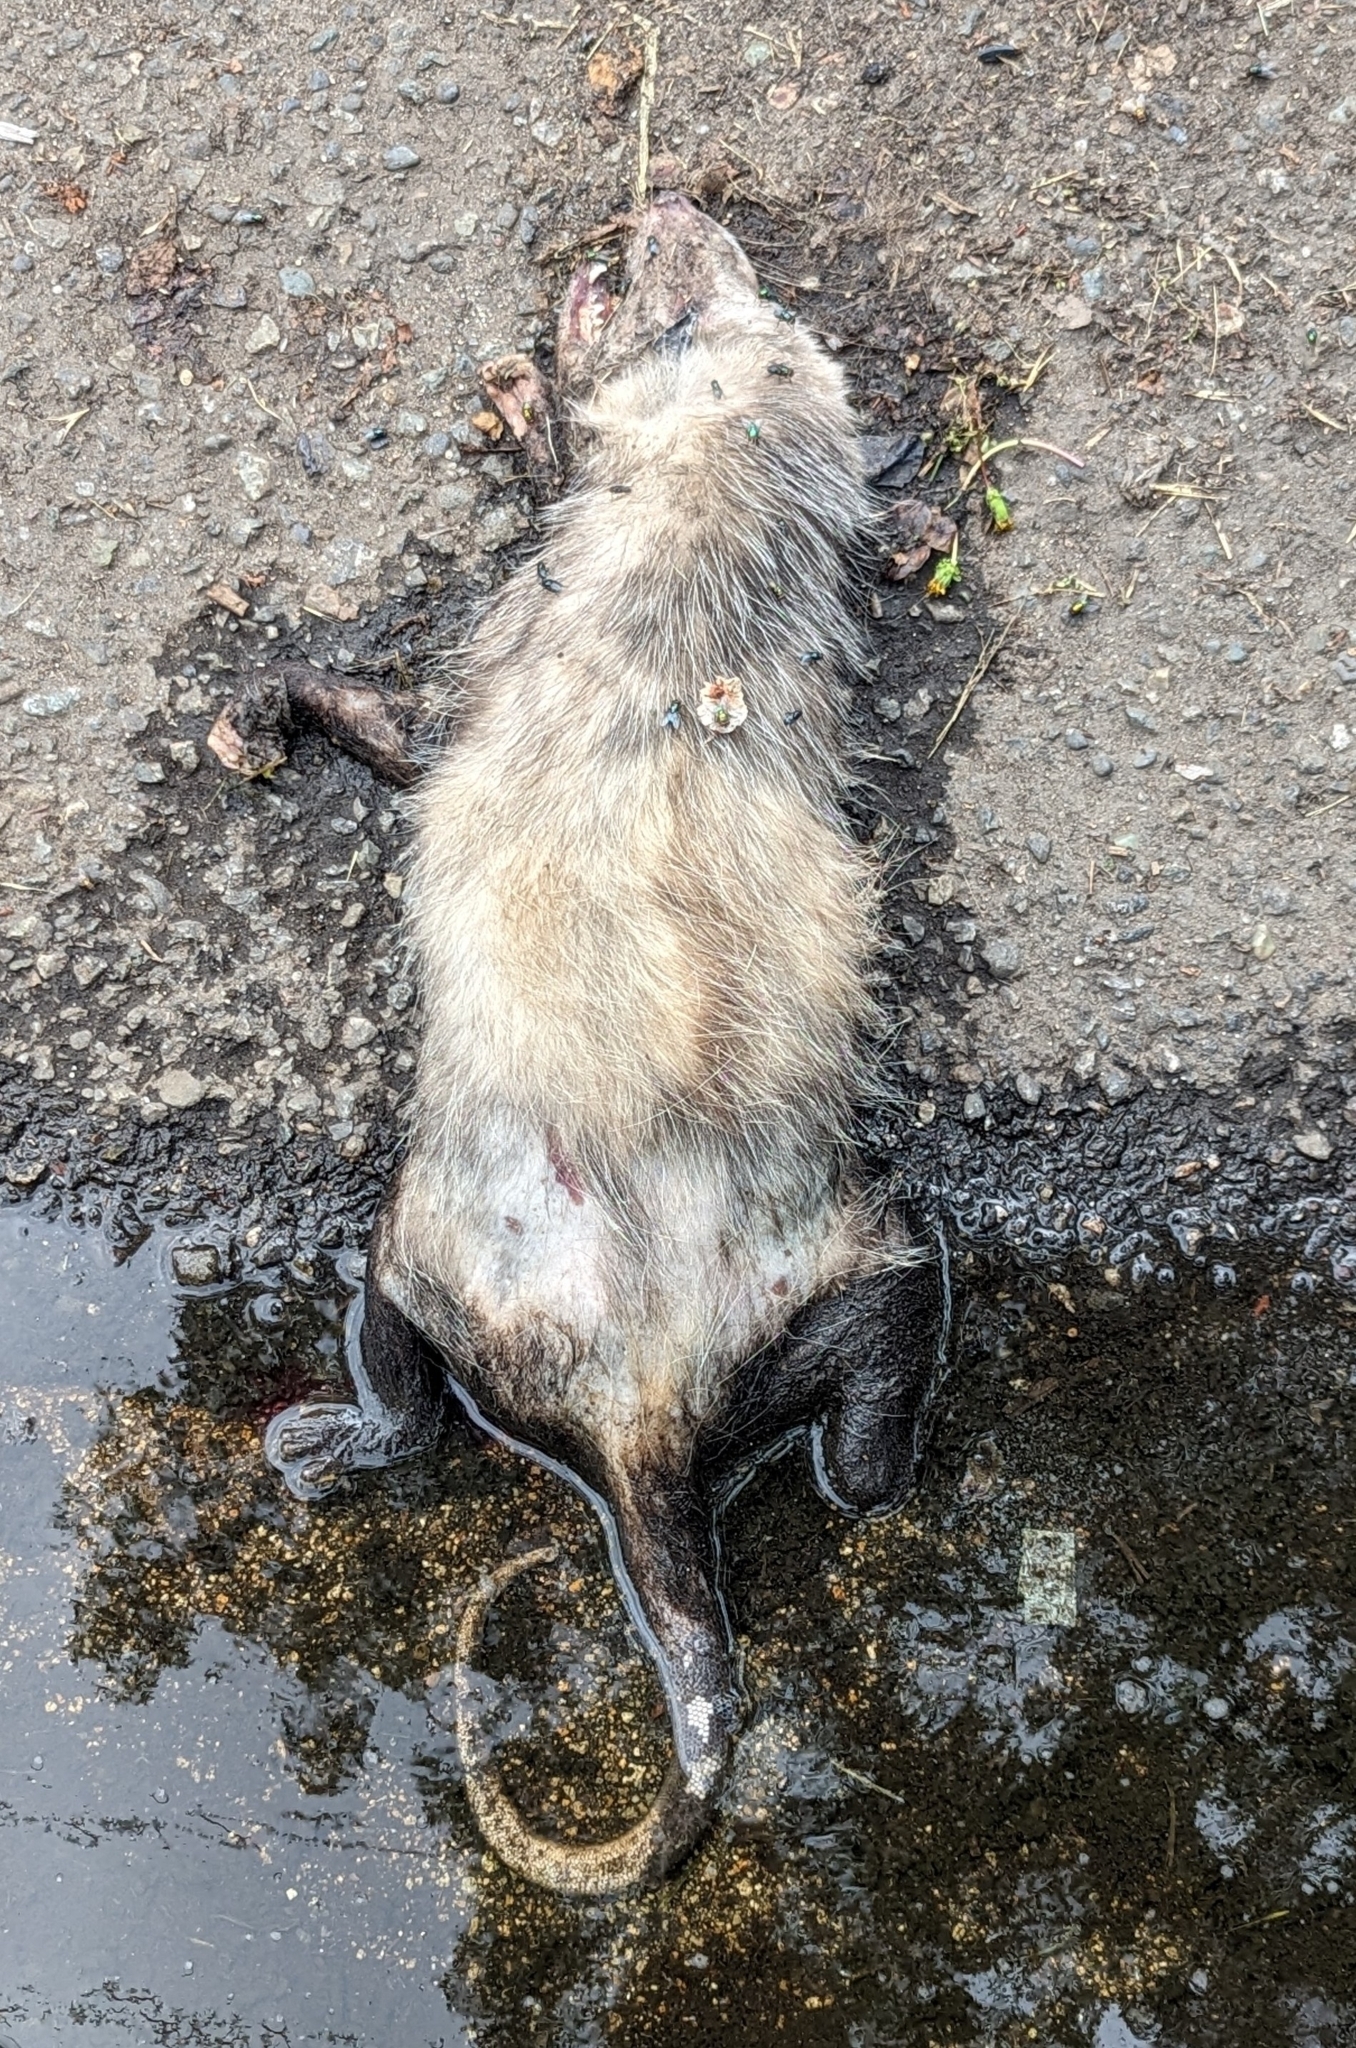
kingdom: Animalia
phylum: Chordata
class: Mammalia
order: Didelphimorphia
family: Didelphidae
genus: Didelphis
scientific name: Didelphis virginiana
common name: Virginia opossum
